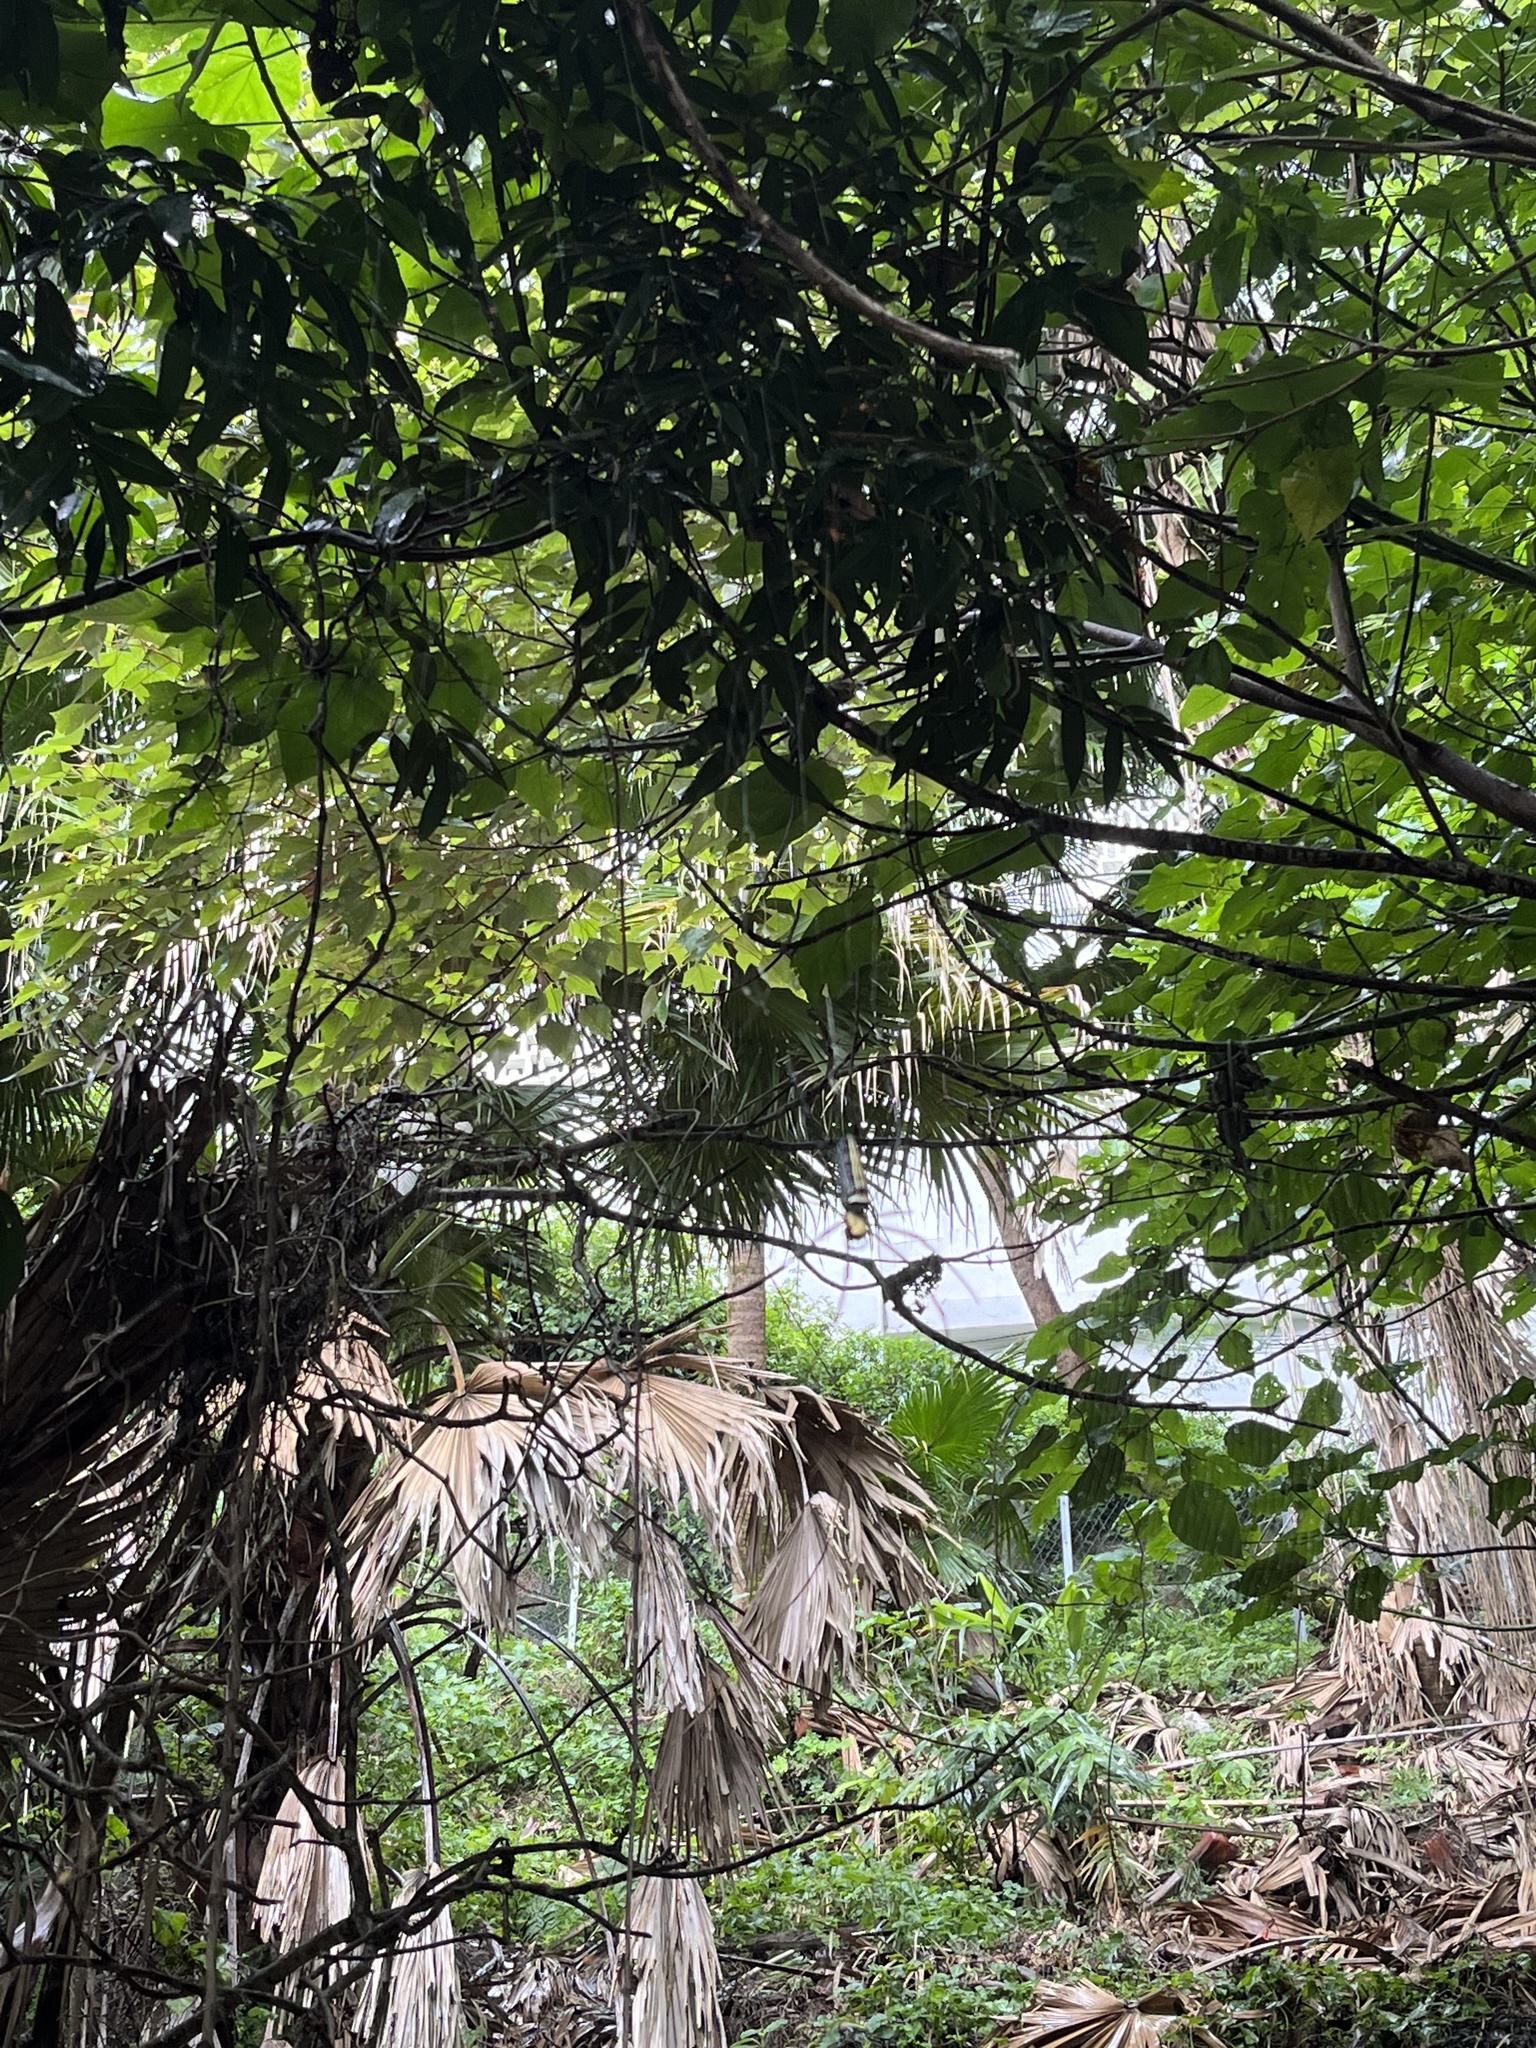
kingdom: Animalia
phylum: Arthropoda
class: Arachnida
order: Araneae
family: Araneidae
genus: Nephila
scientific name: Nephila pilipes
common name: Giant golden orb weaver
